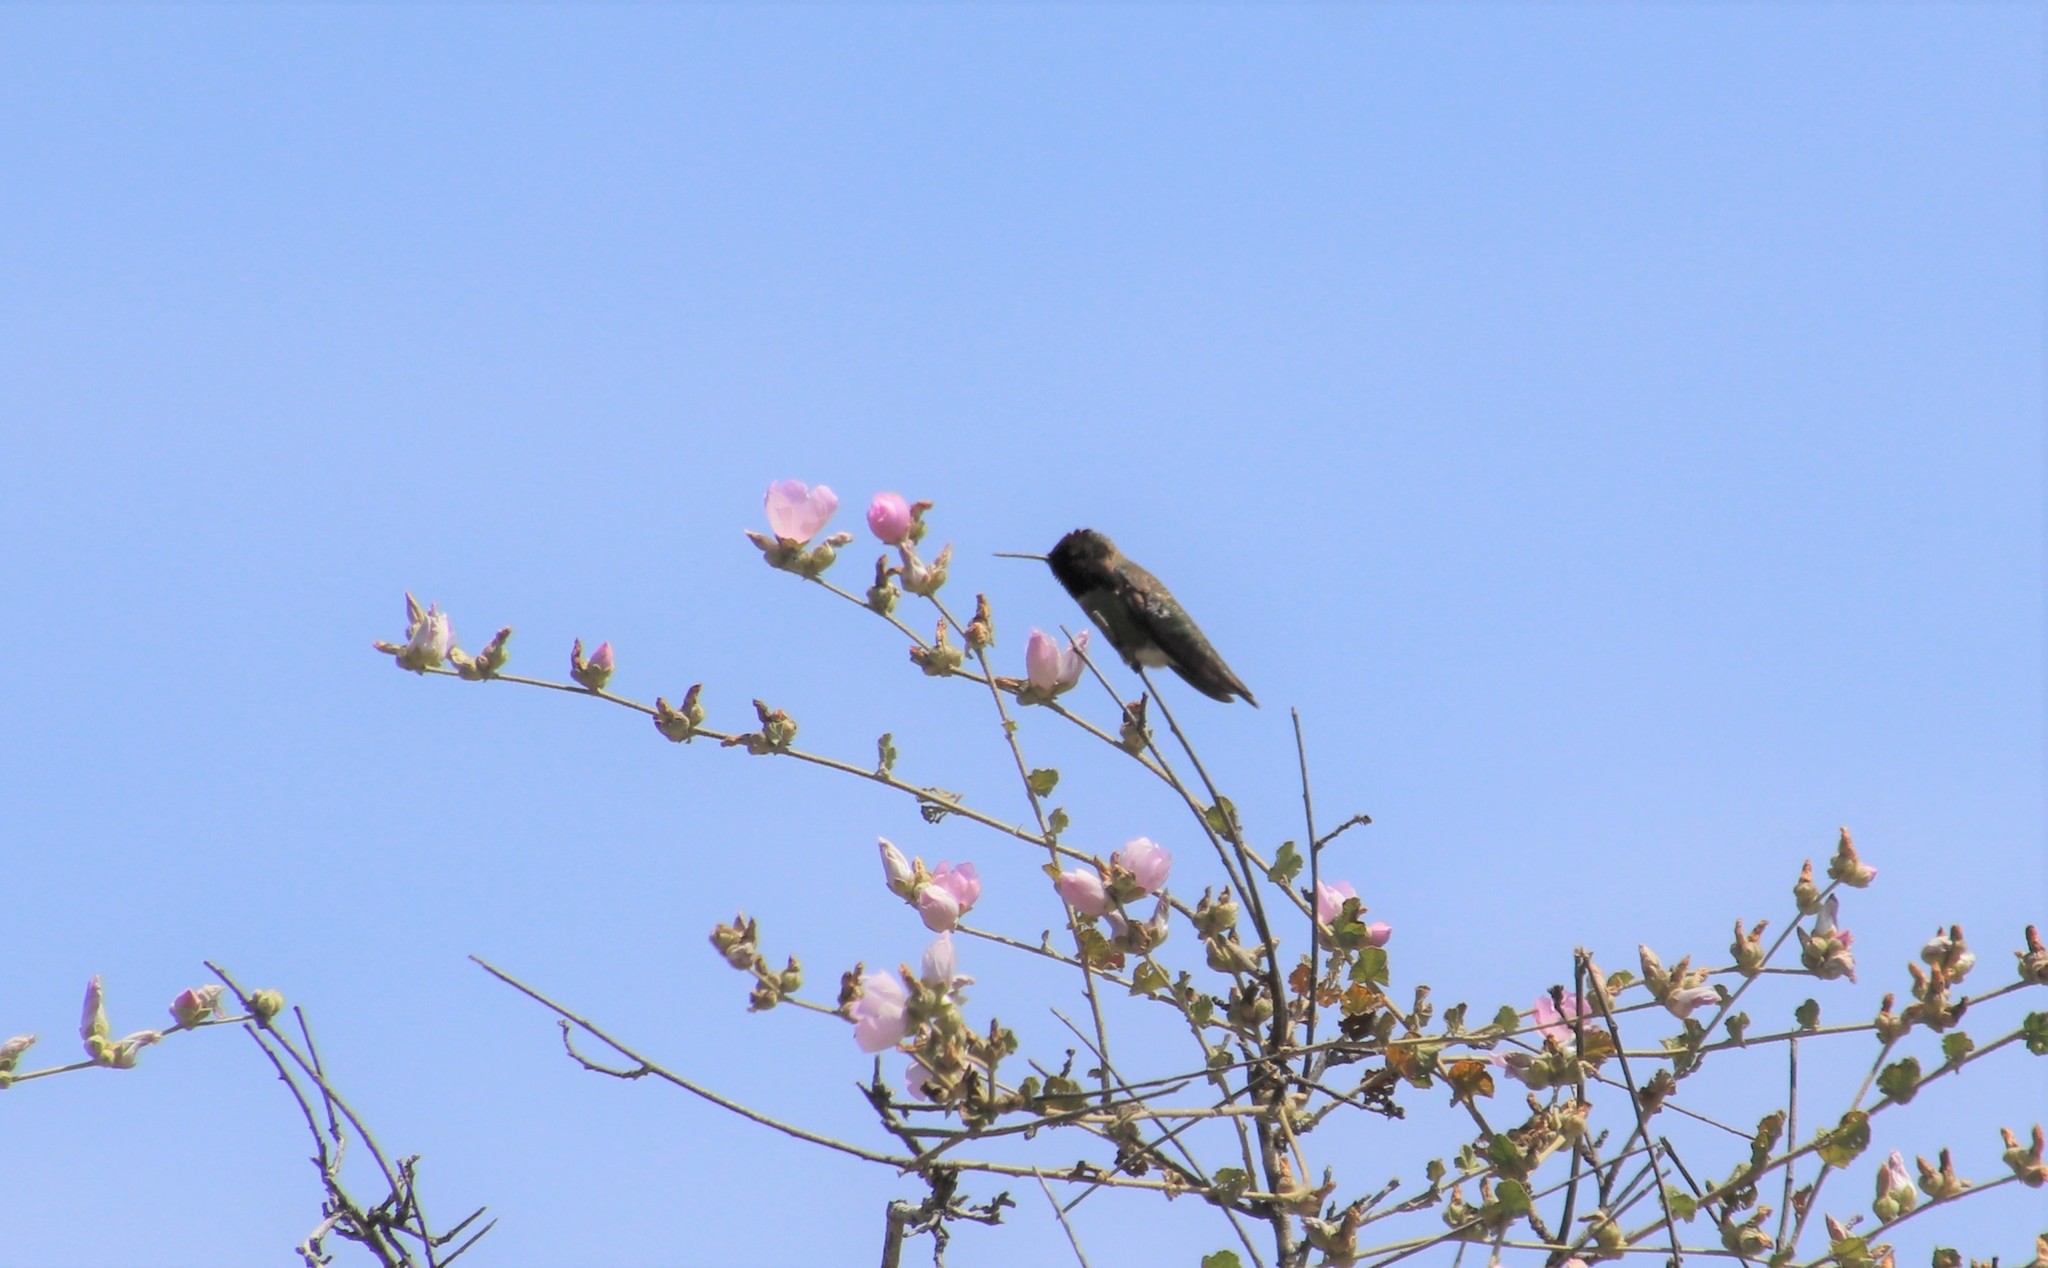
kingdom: Animalia
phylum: Chordata
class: Aves
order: Apodiformes
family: Trochilidae
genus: Calypte
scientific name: Calypte anna
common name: Anna's hummingbird
